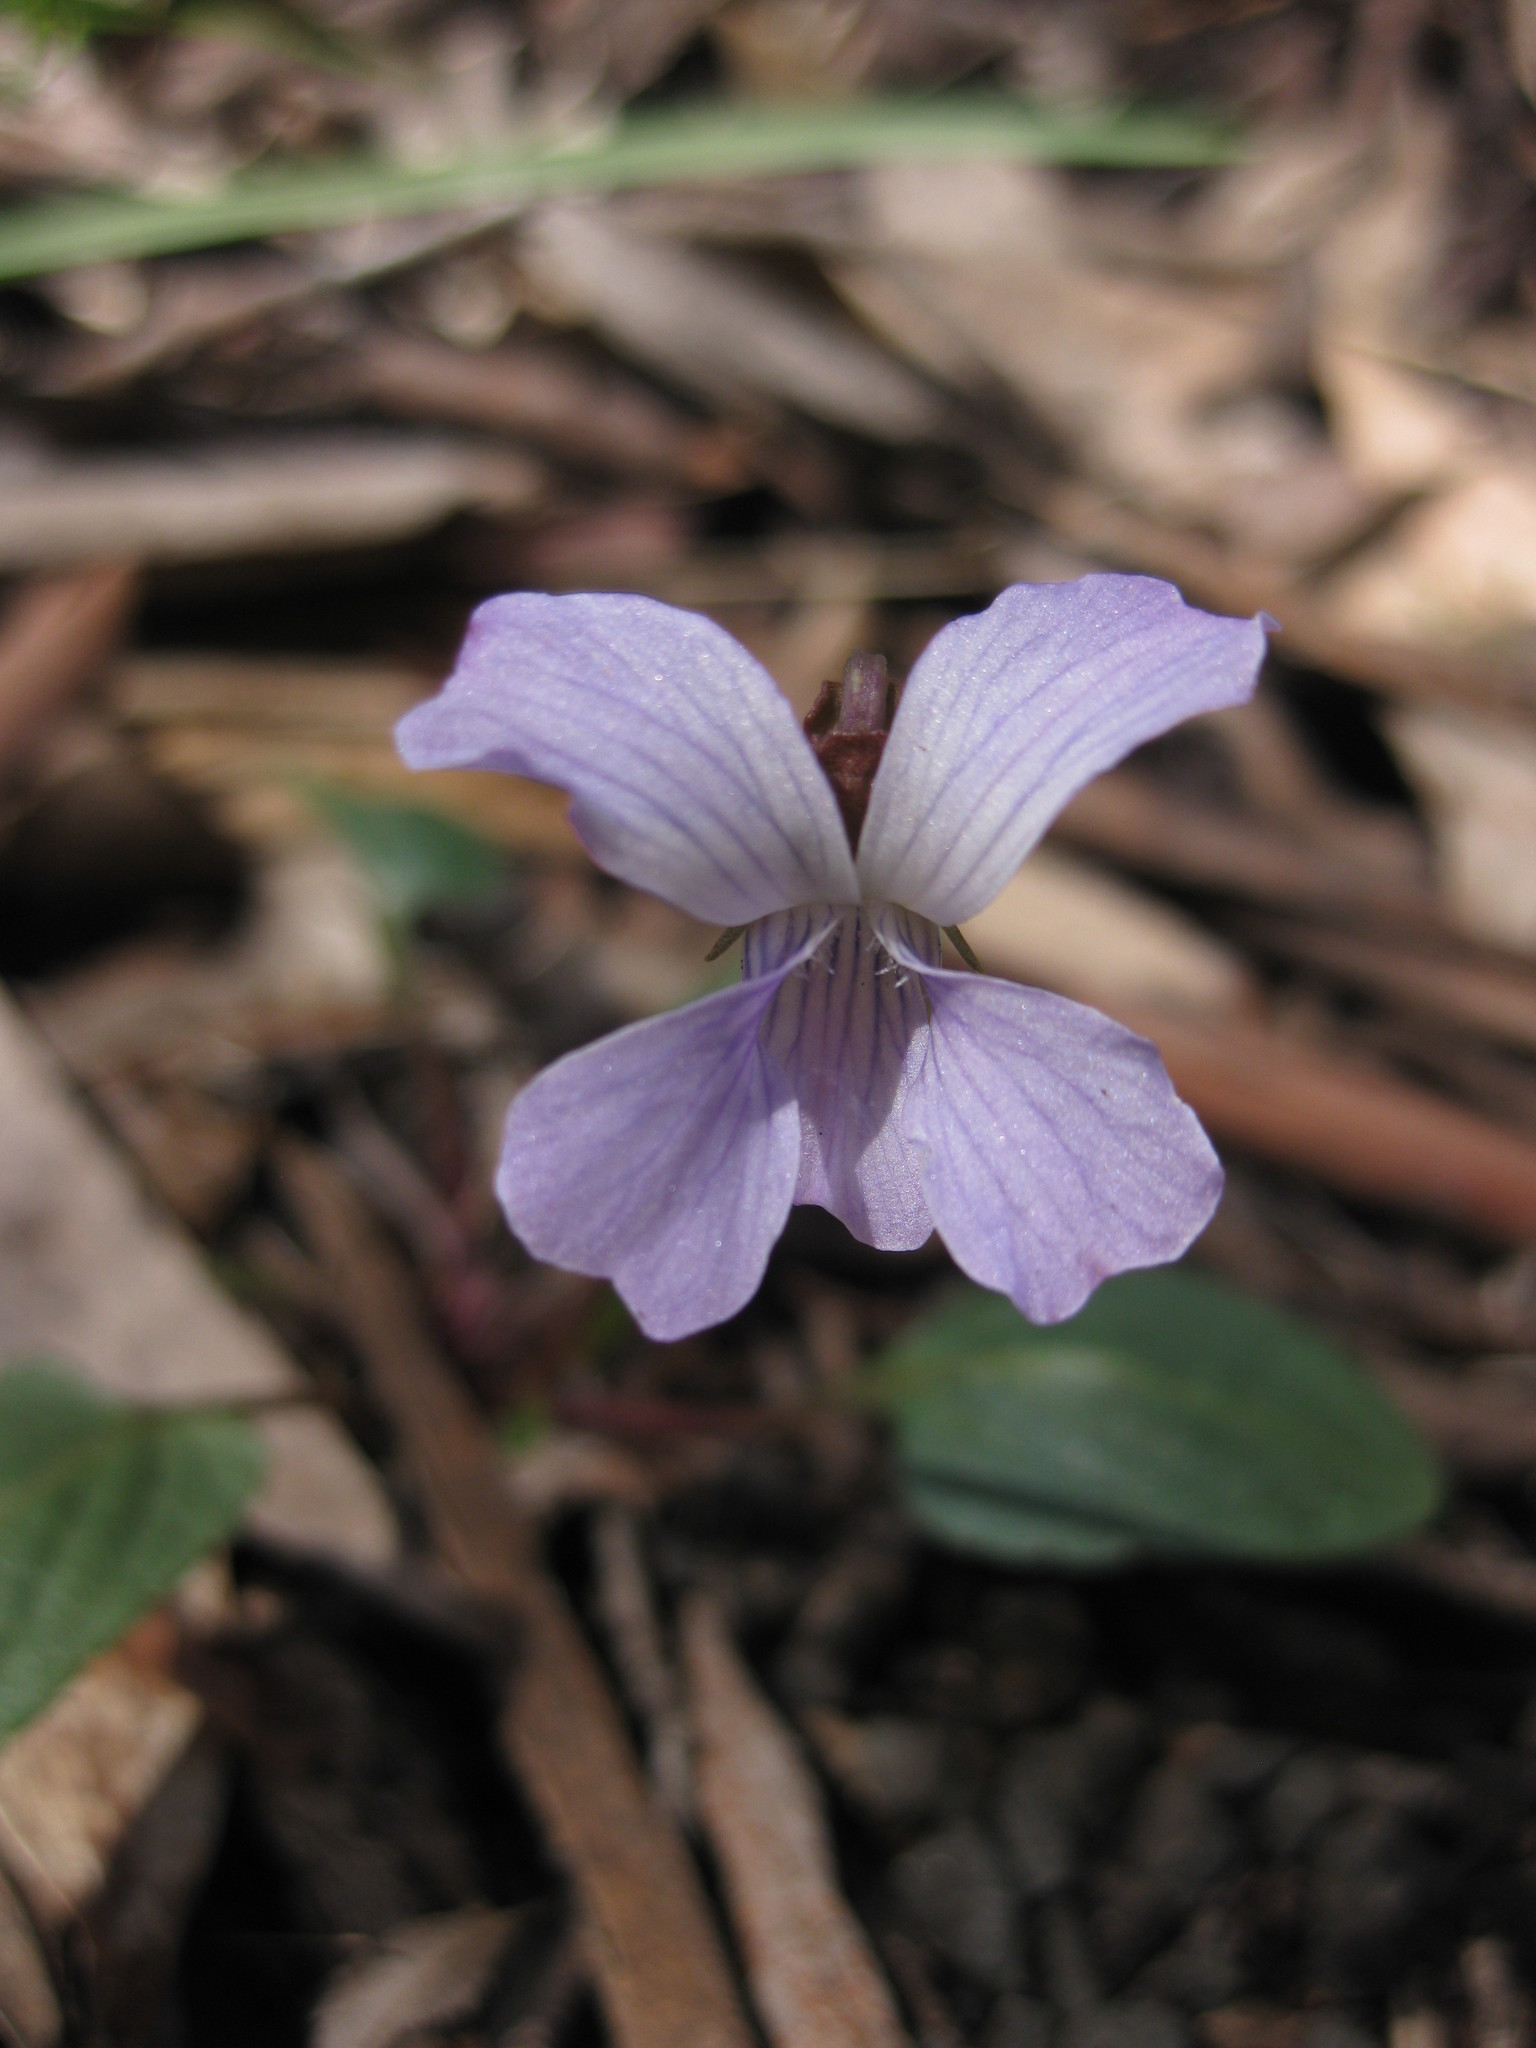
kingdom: Plantae
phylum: Tracheophyta
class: Magnoliopsida
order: Malpighiales
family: Violaceae
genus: Viola
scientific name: Viola betonicifolia
